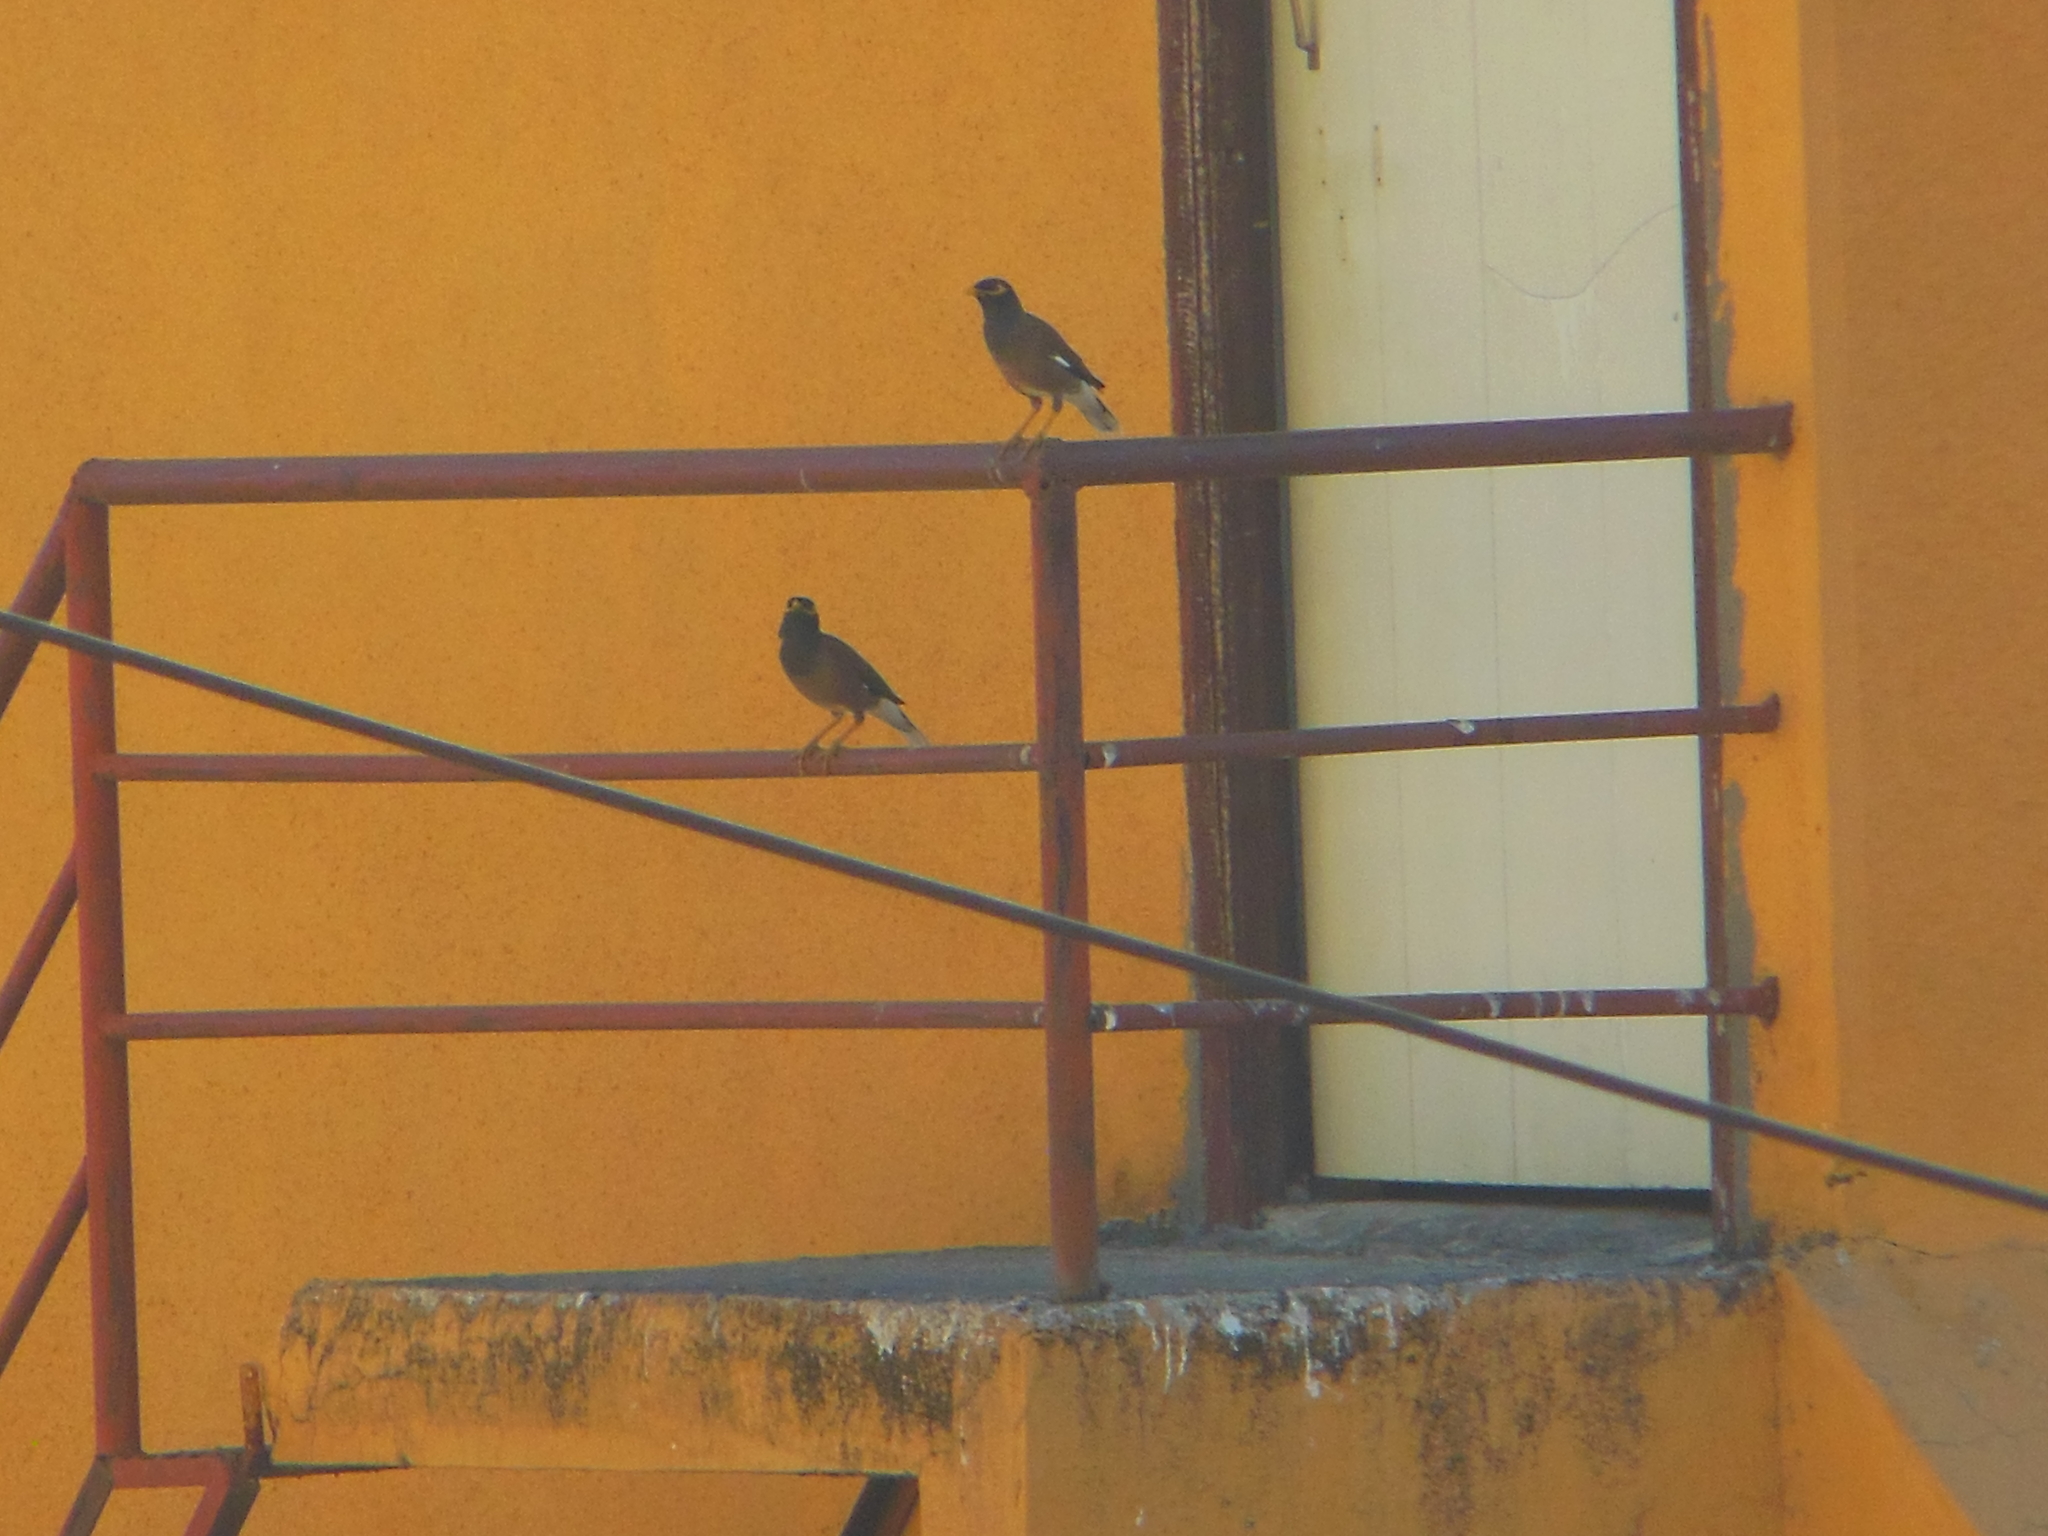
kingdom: Animalia
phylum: Chordata
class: Aves
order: Passeriformes
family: Sturnidae
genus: Acridotheres
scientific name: Acridotheres tristis
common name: Common myna
